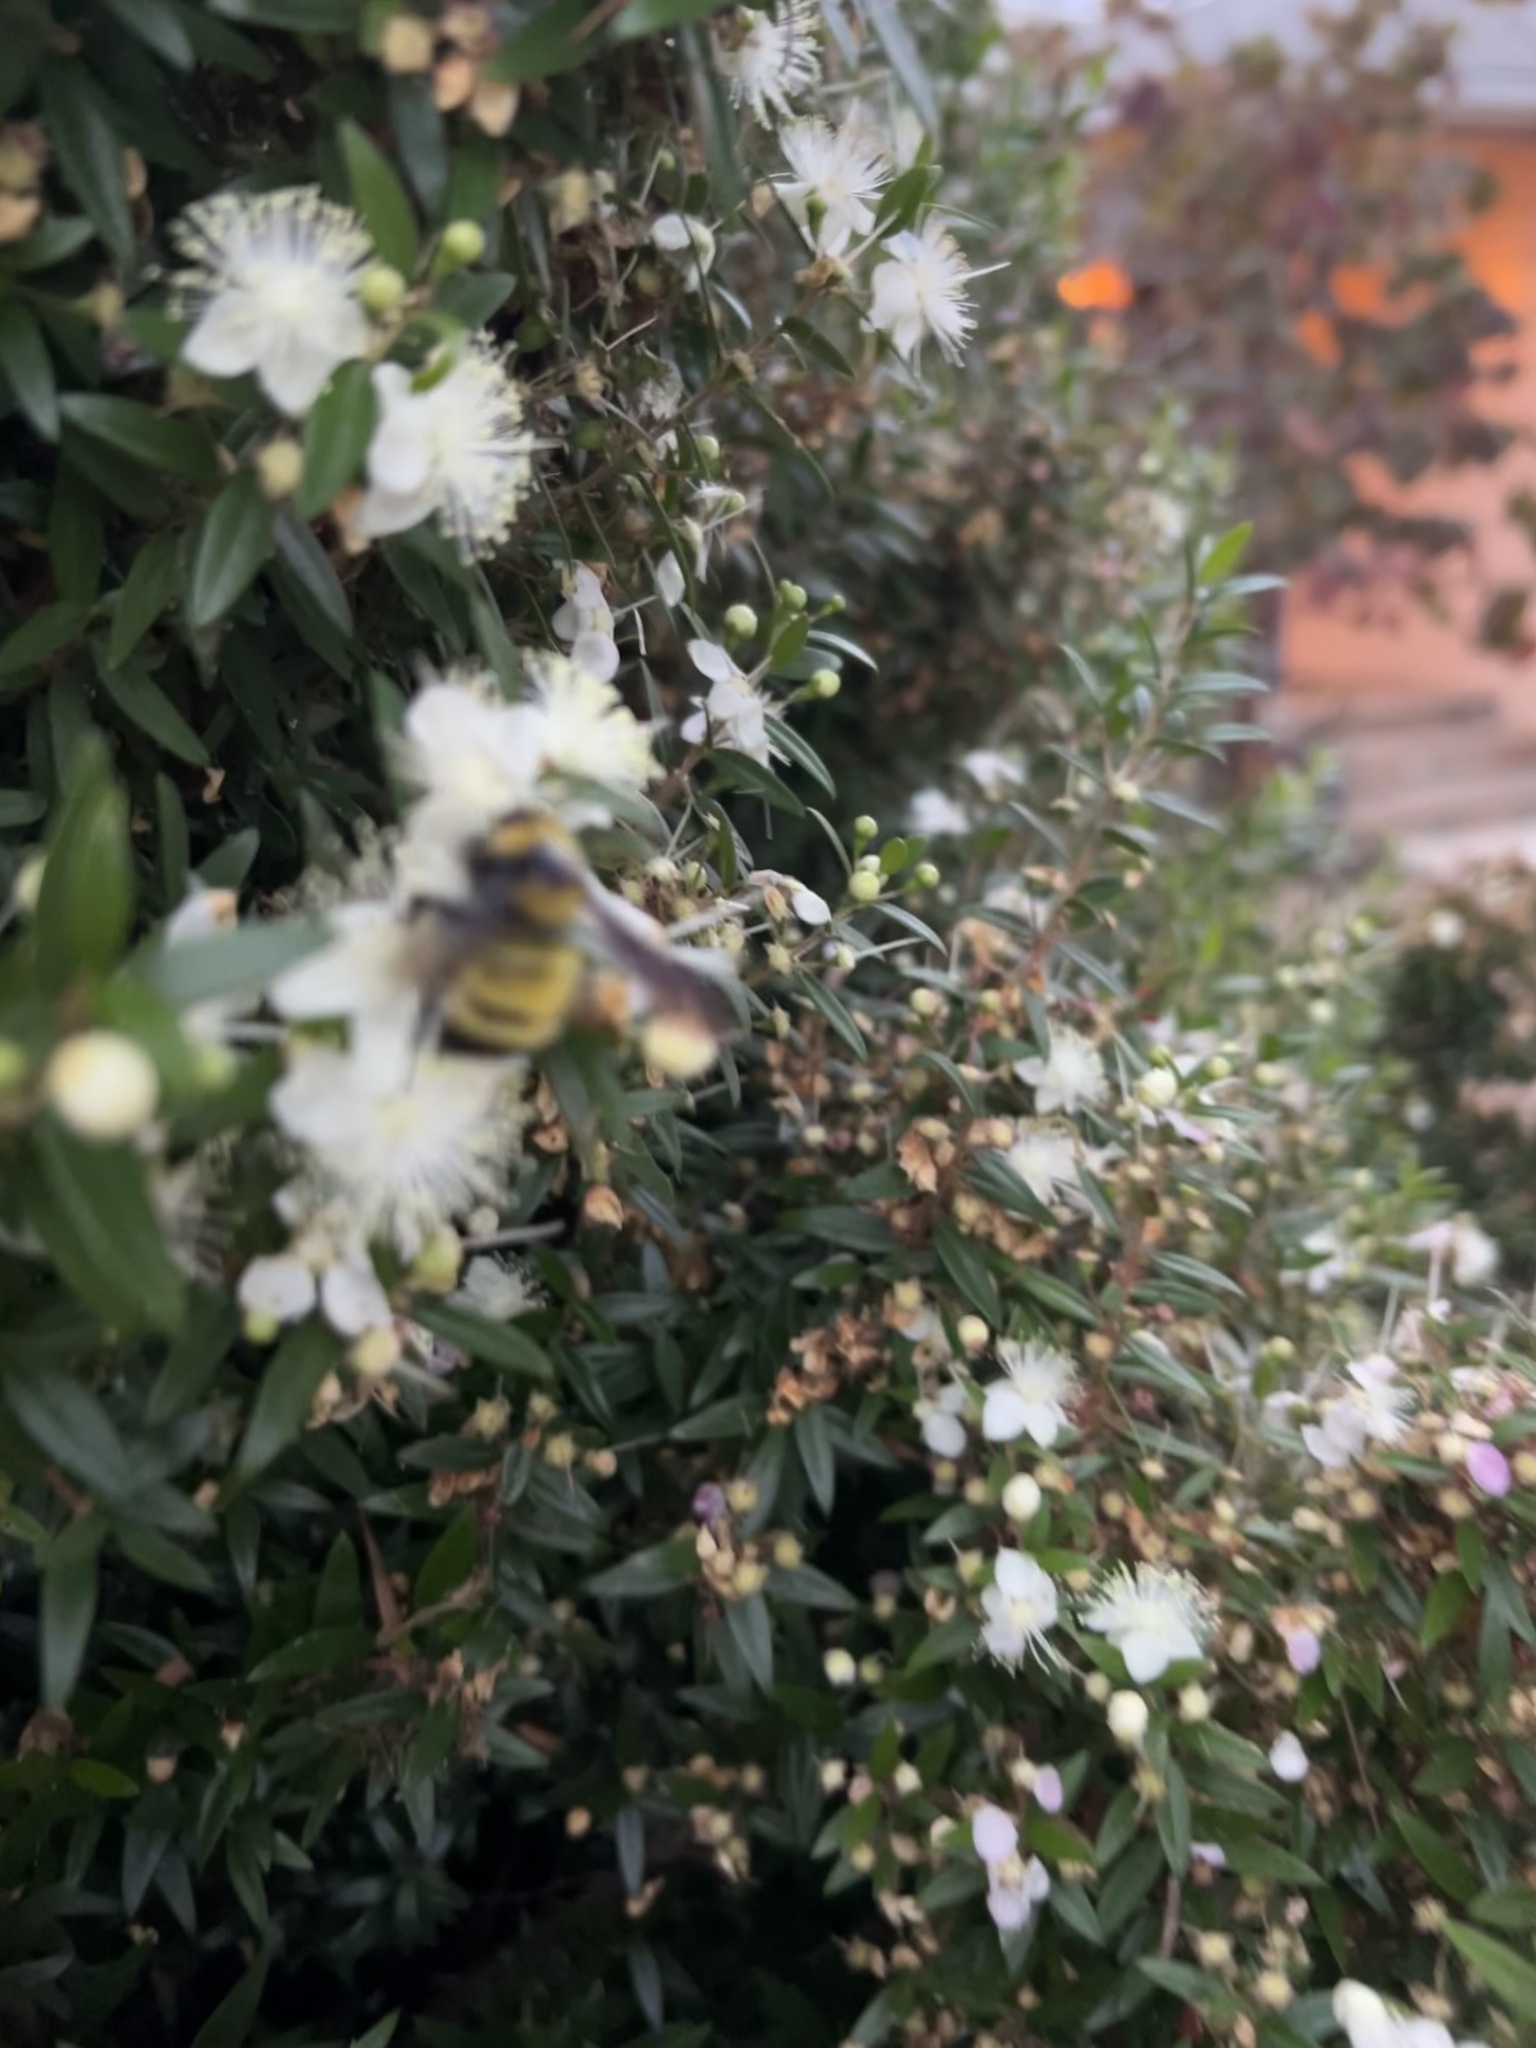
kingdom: Animalia
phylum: Arthropoda
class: Insecta
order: Hymenoptera
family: Apidae
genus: Bombus
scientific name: Bombus sonorus
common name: Sonoran bumble bee
